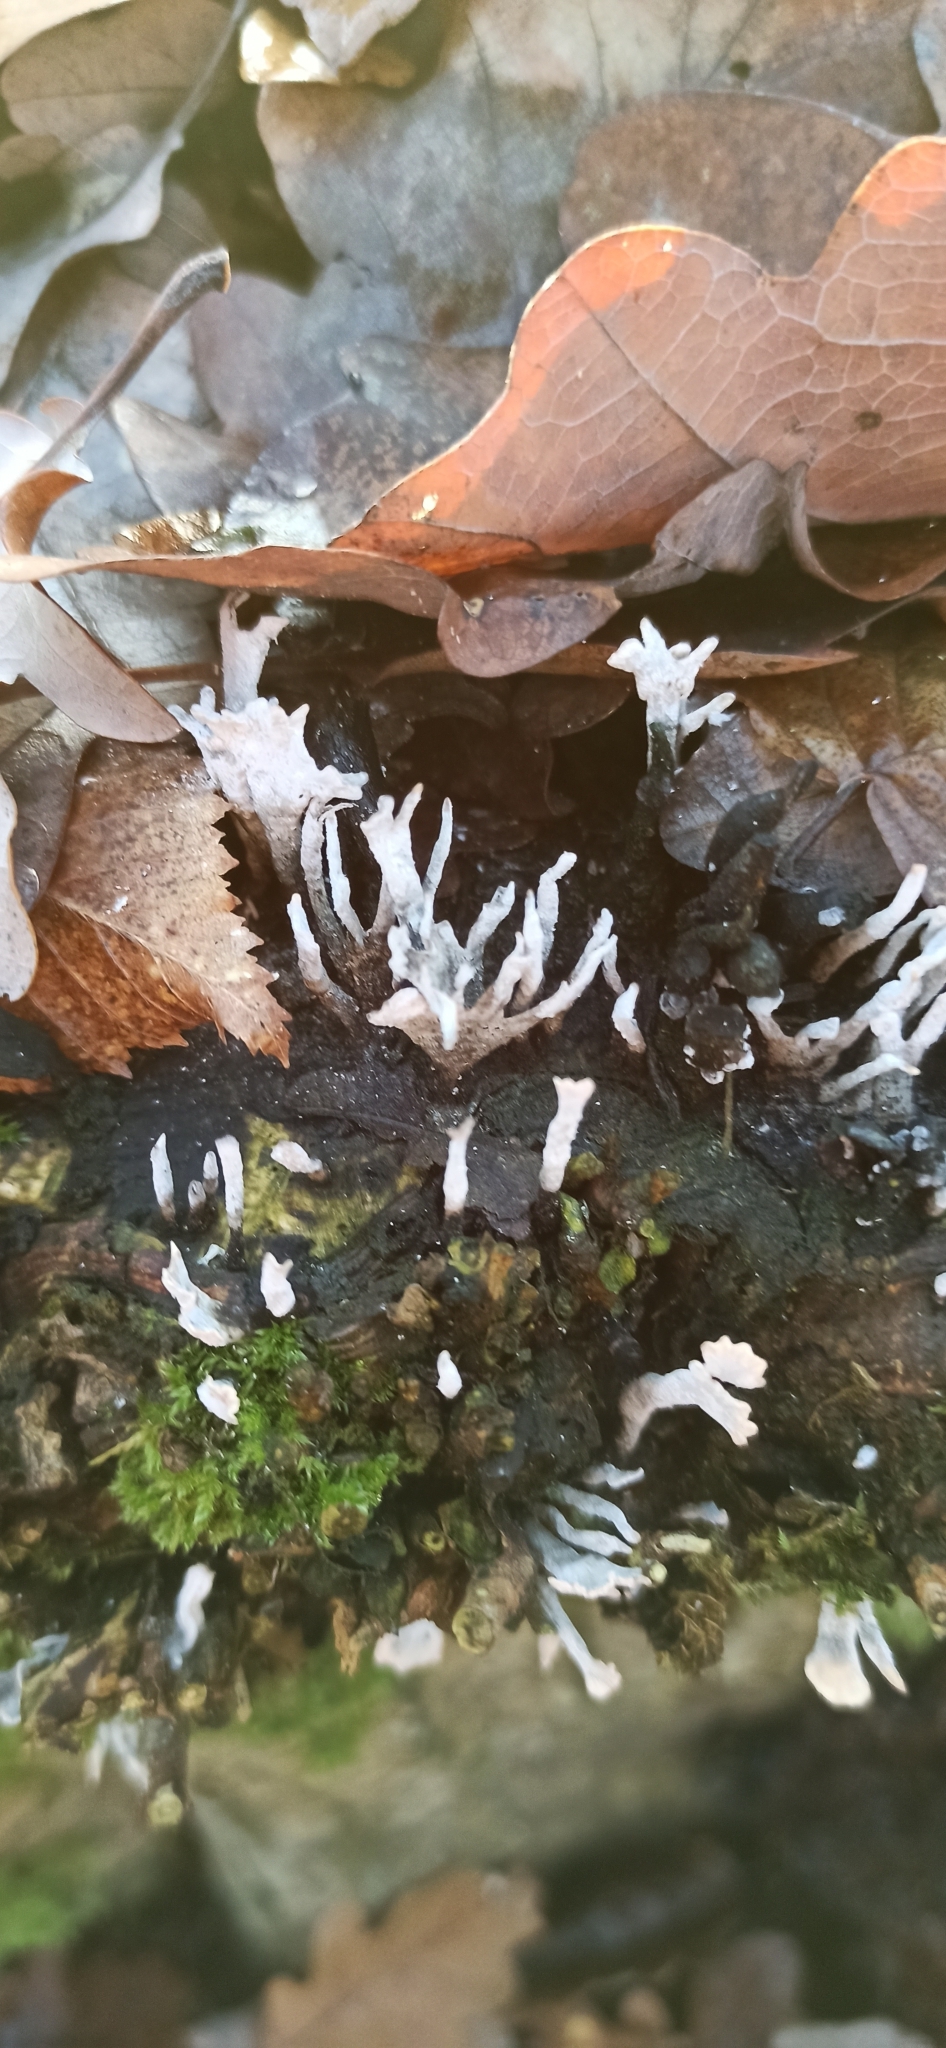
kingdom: Fungi
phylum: Ascomycota
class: Sordariomycetes
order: Xylariales
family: Xylariaceae
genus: Xylaria
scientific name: Xylaria hypoxylon
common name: Candle-snuff fungus
